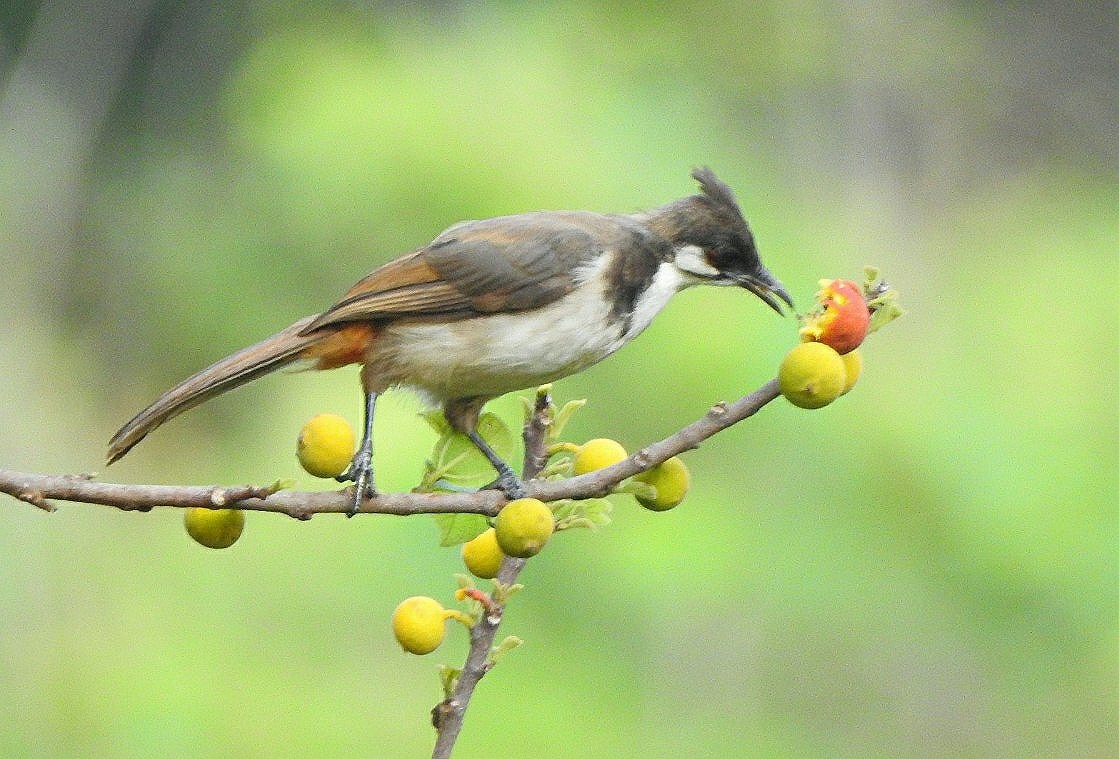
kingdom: Animalia
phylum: Chordata
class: Aves
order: Passeriformes
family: Pycnonotidae
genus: Pycnonotus
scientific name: Pycnonotus jocosus
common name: Red-whiskered bulbul
